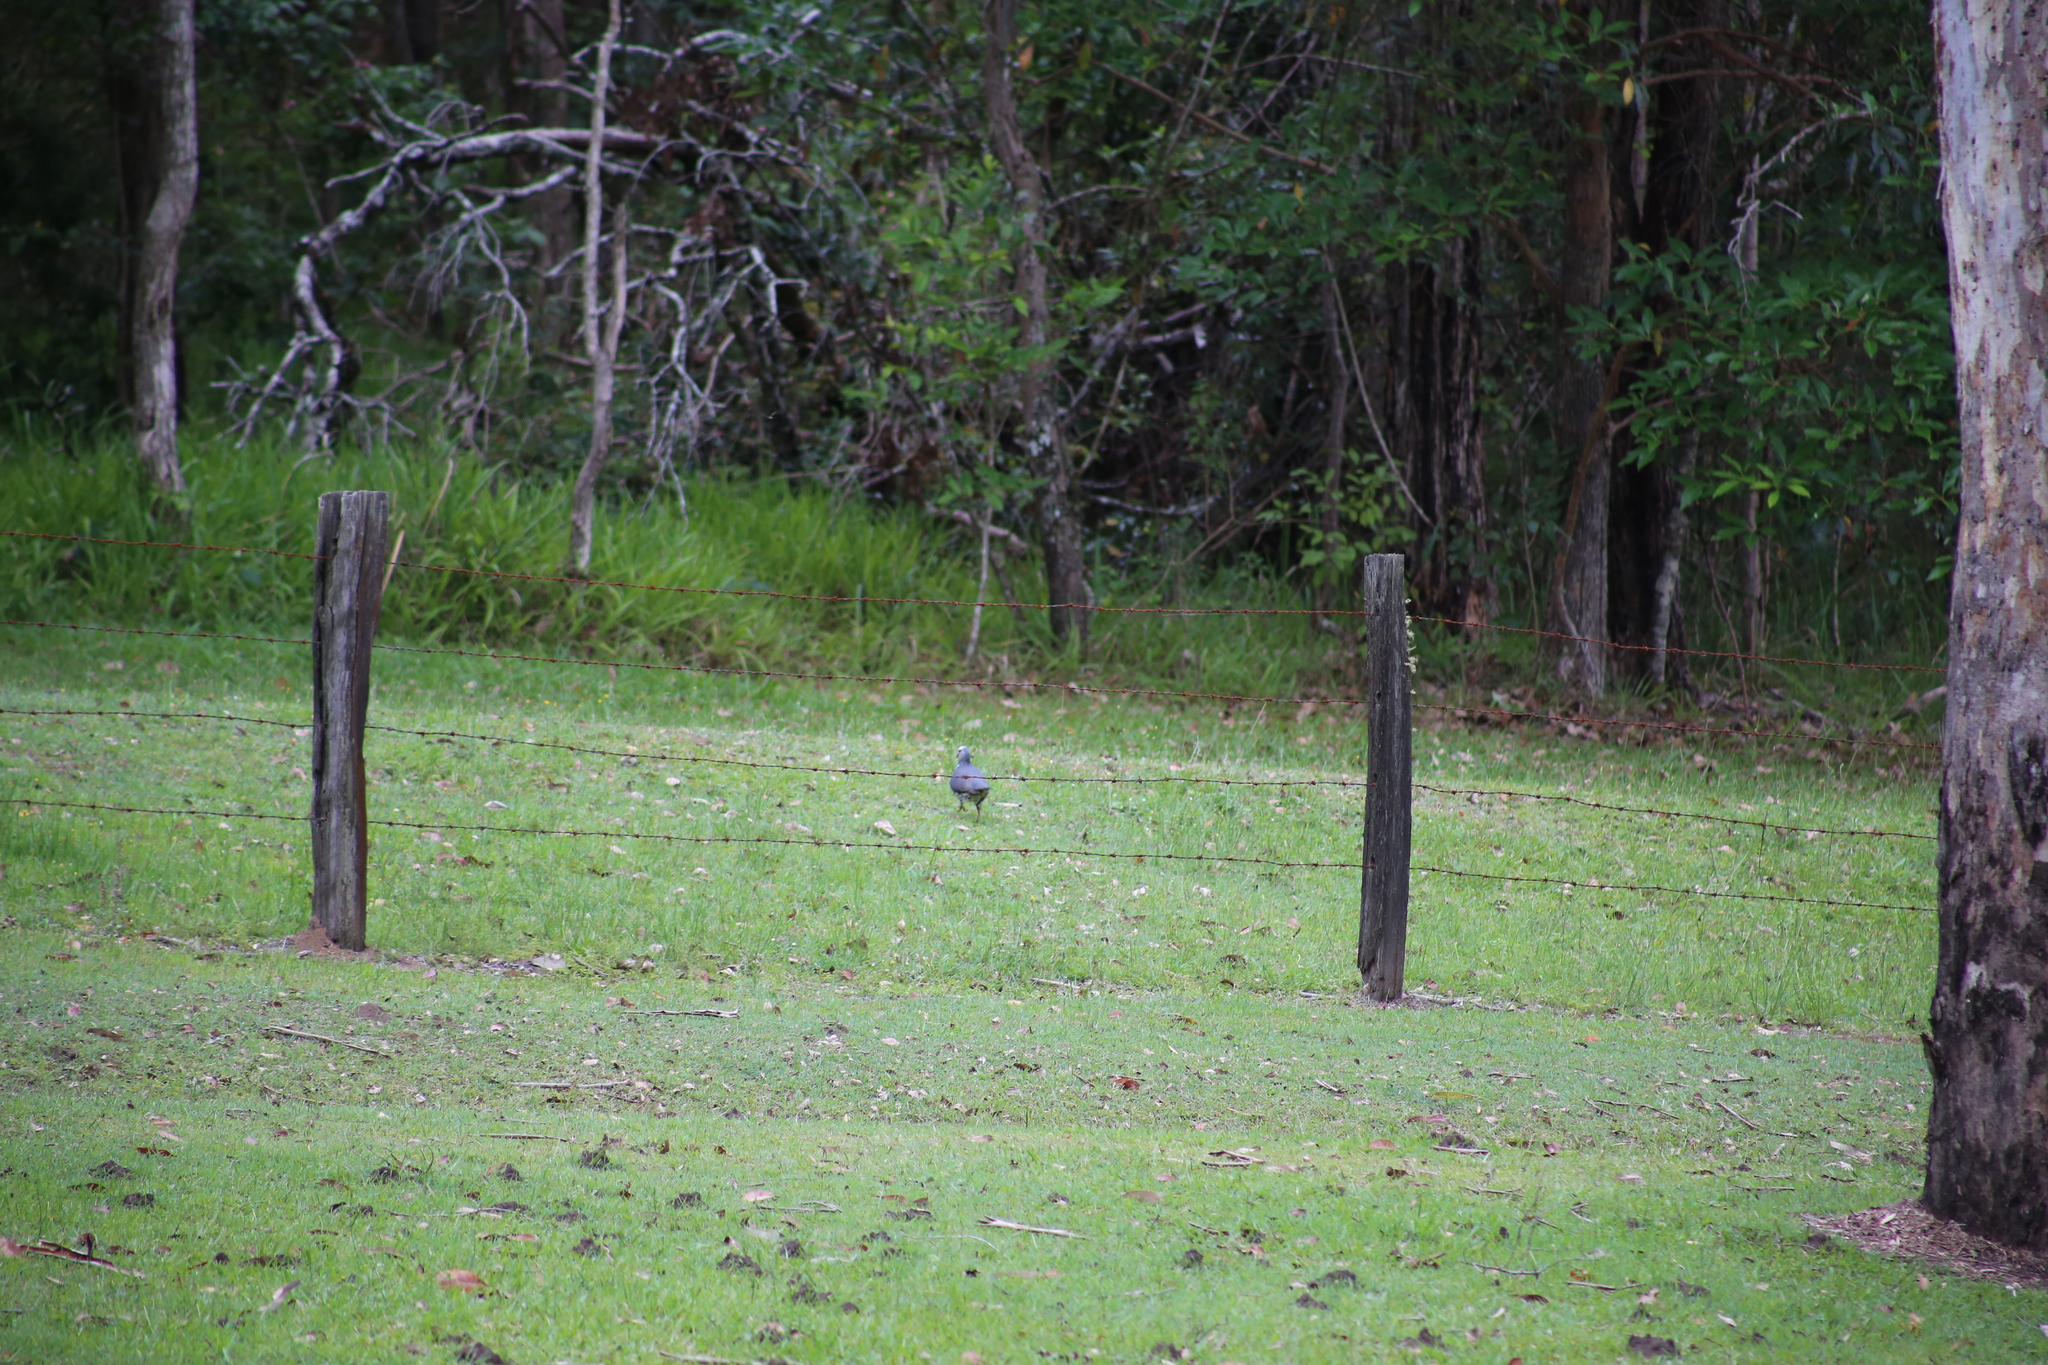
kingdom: Animalia
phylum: Chordata
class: Aves
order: Columbiformes
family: Columbidae
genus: Leucosarcia
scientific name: Leucosarcia melanoleuca
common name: Wonga pigeon
